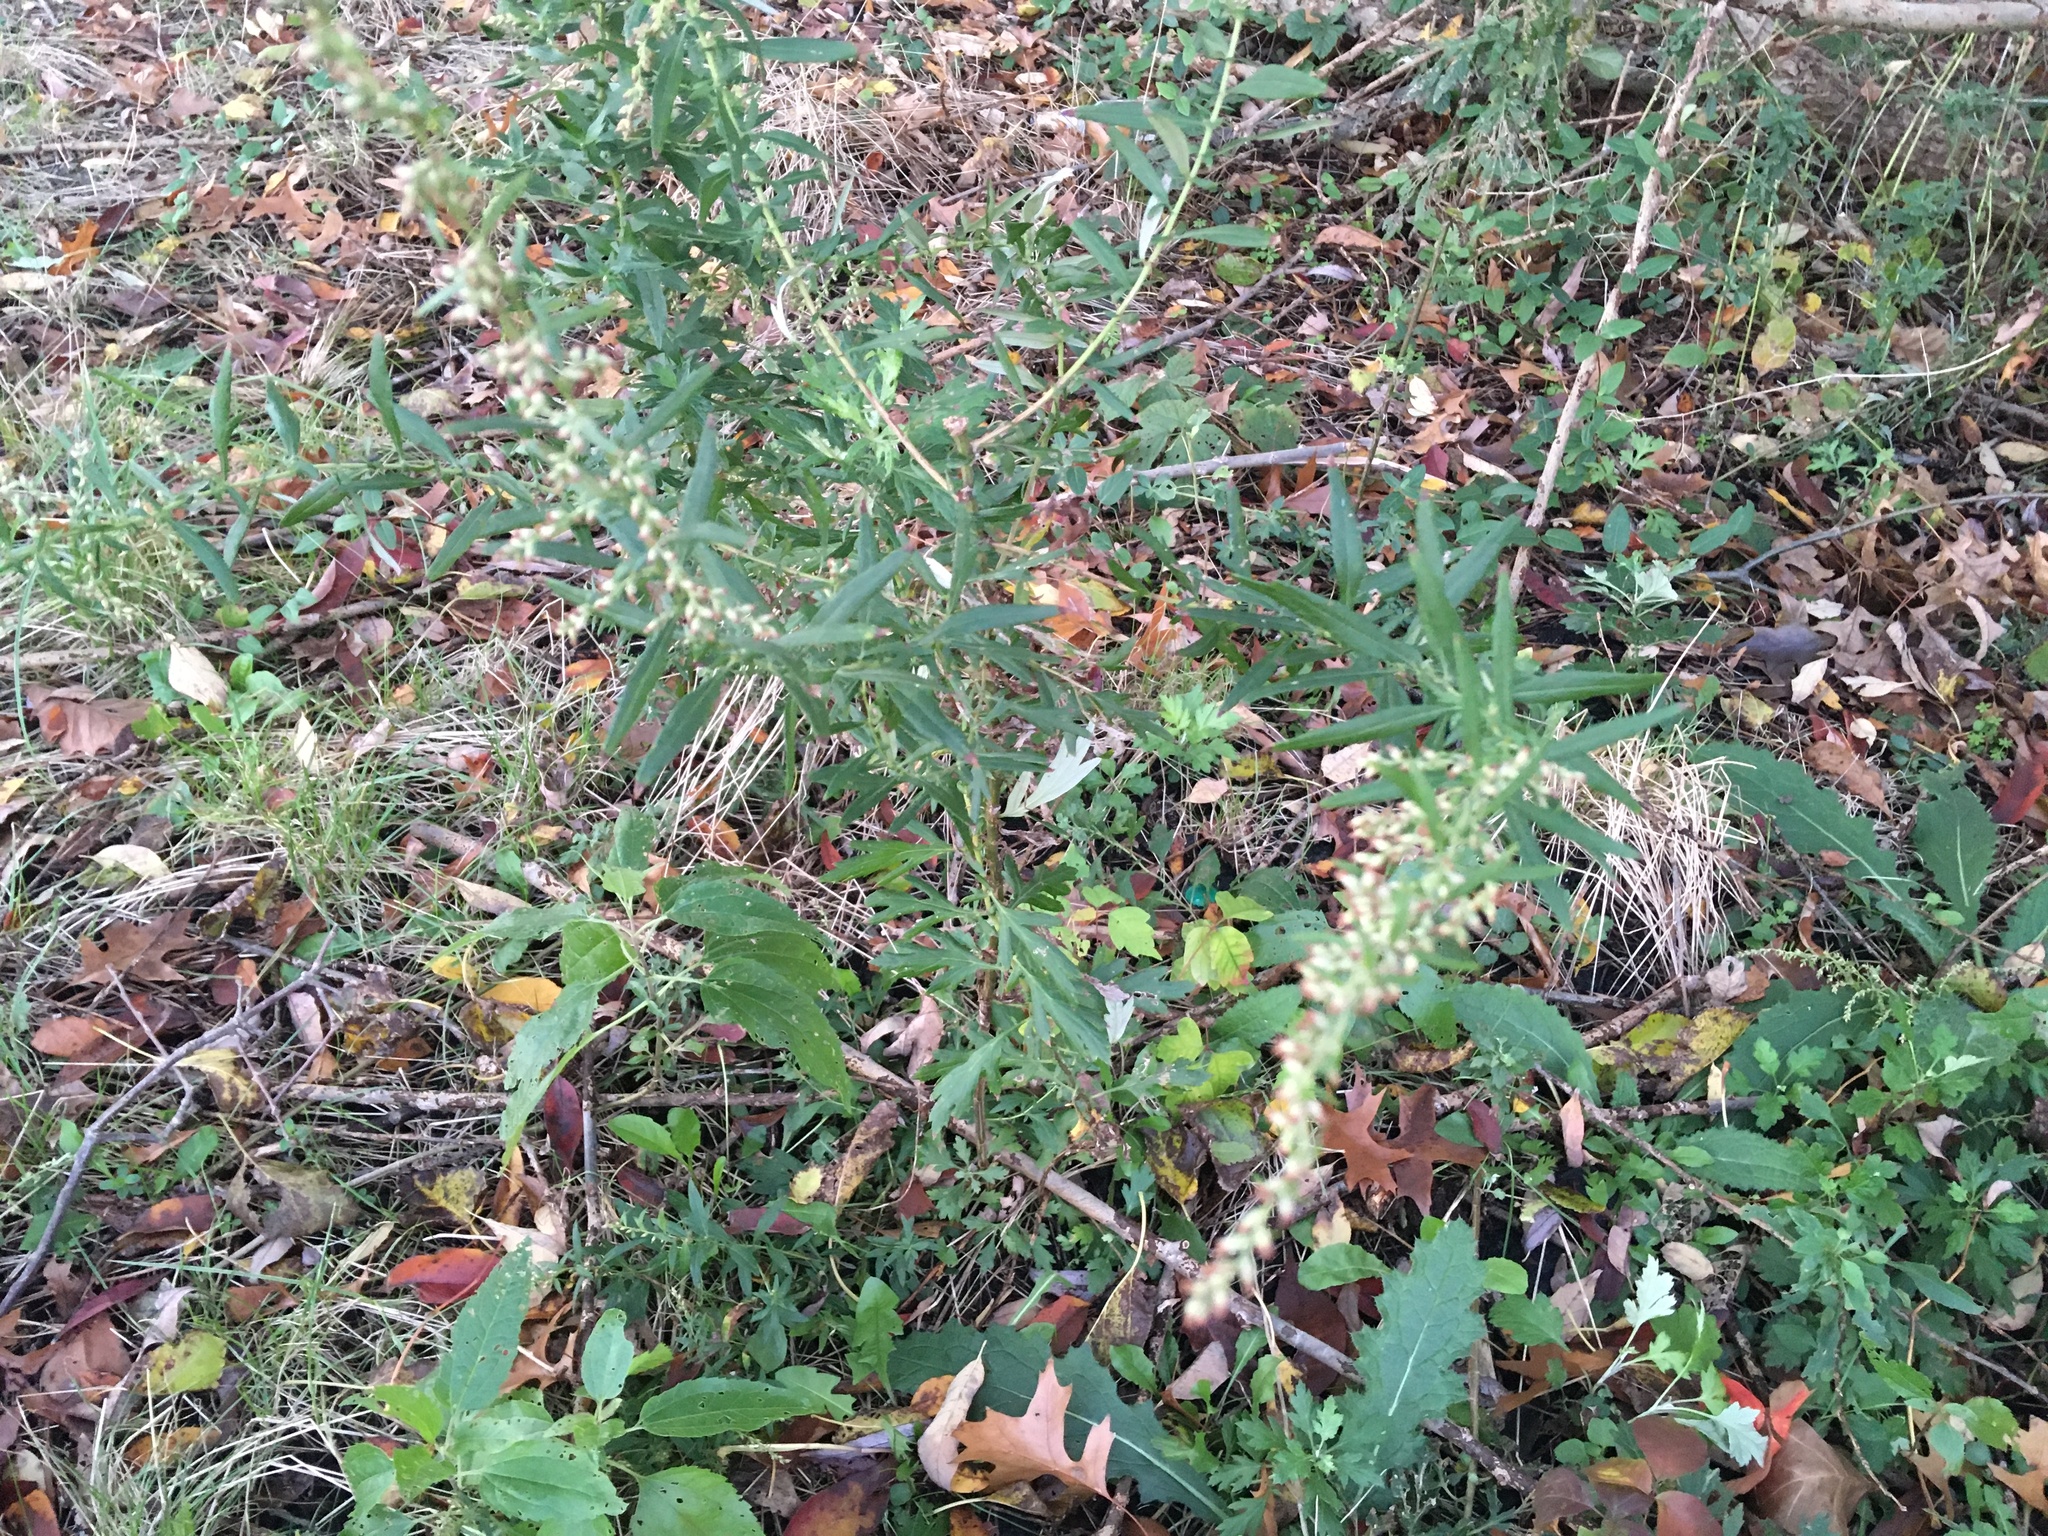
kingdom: Plantae
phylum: Tracheophyta
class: Magnoliopsida
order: Asterales
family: Asteraceae
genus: Artemisia
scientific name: Artemisia vulgaris
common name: Mugwort
